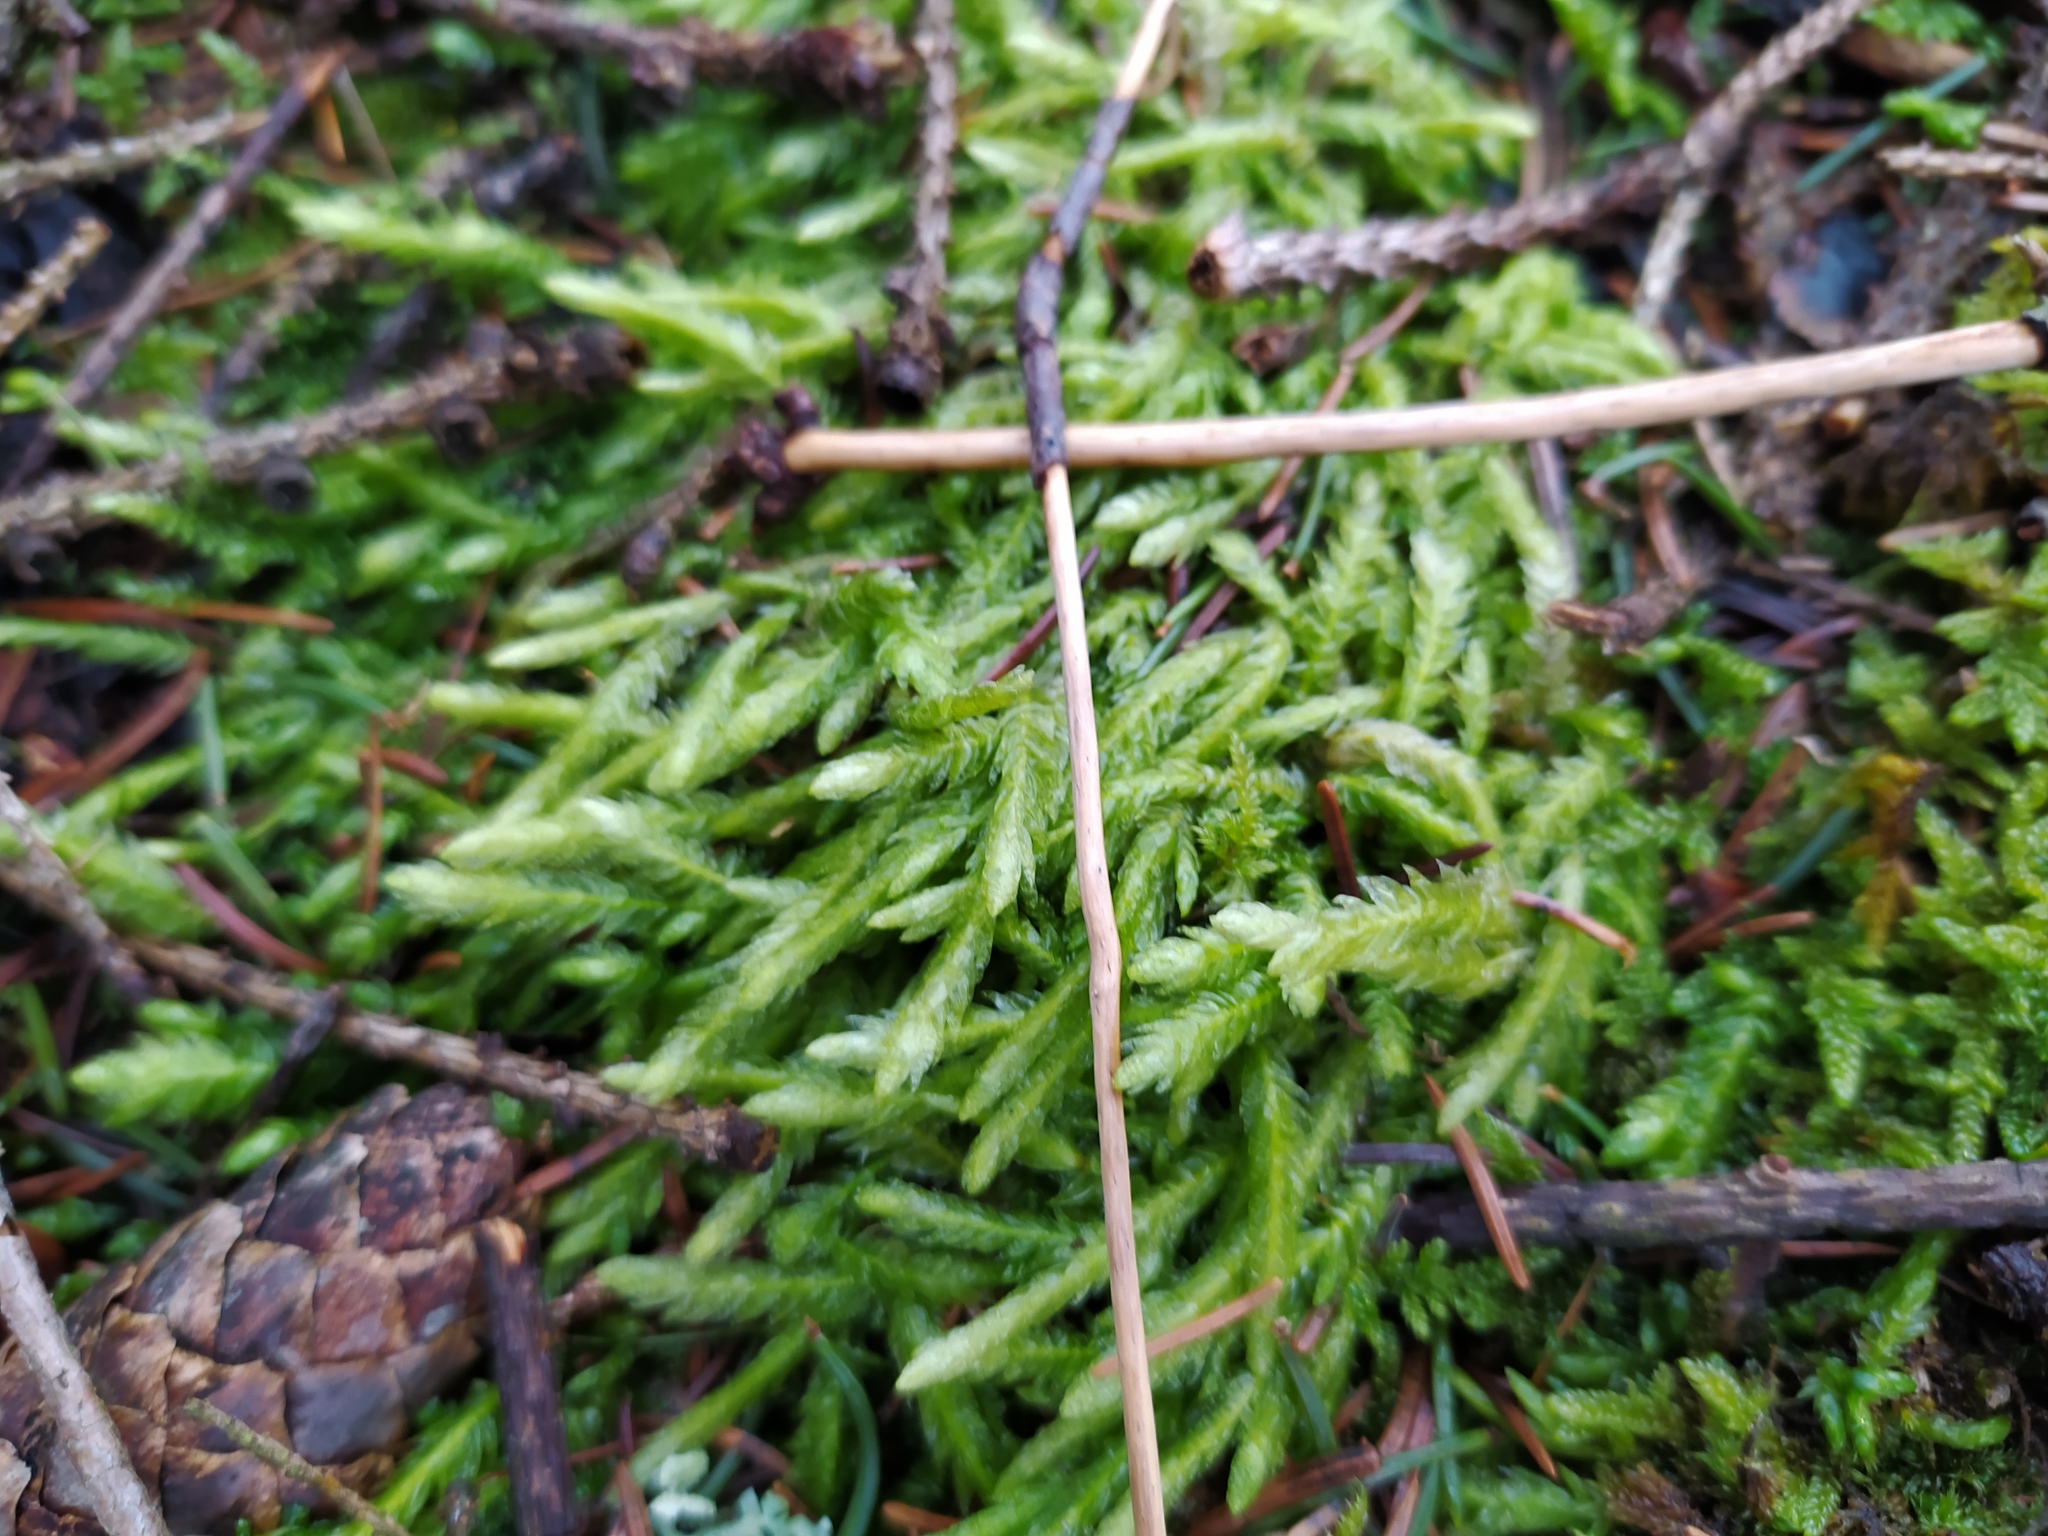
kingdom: Plantae
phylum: Bryophyta
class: Bryopsida
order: Hypnales
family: Plagiotheciaceae
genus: Plagiothecium
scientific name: Plagiothecium undulatum
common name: Waved silk-moss
